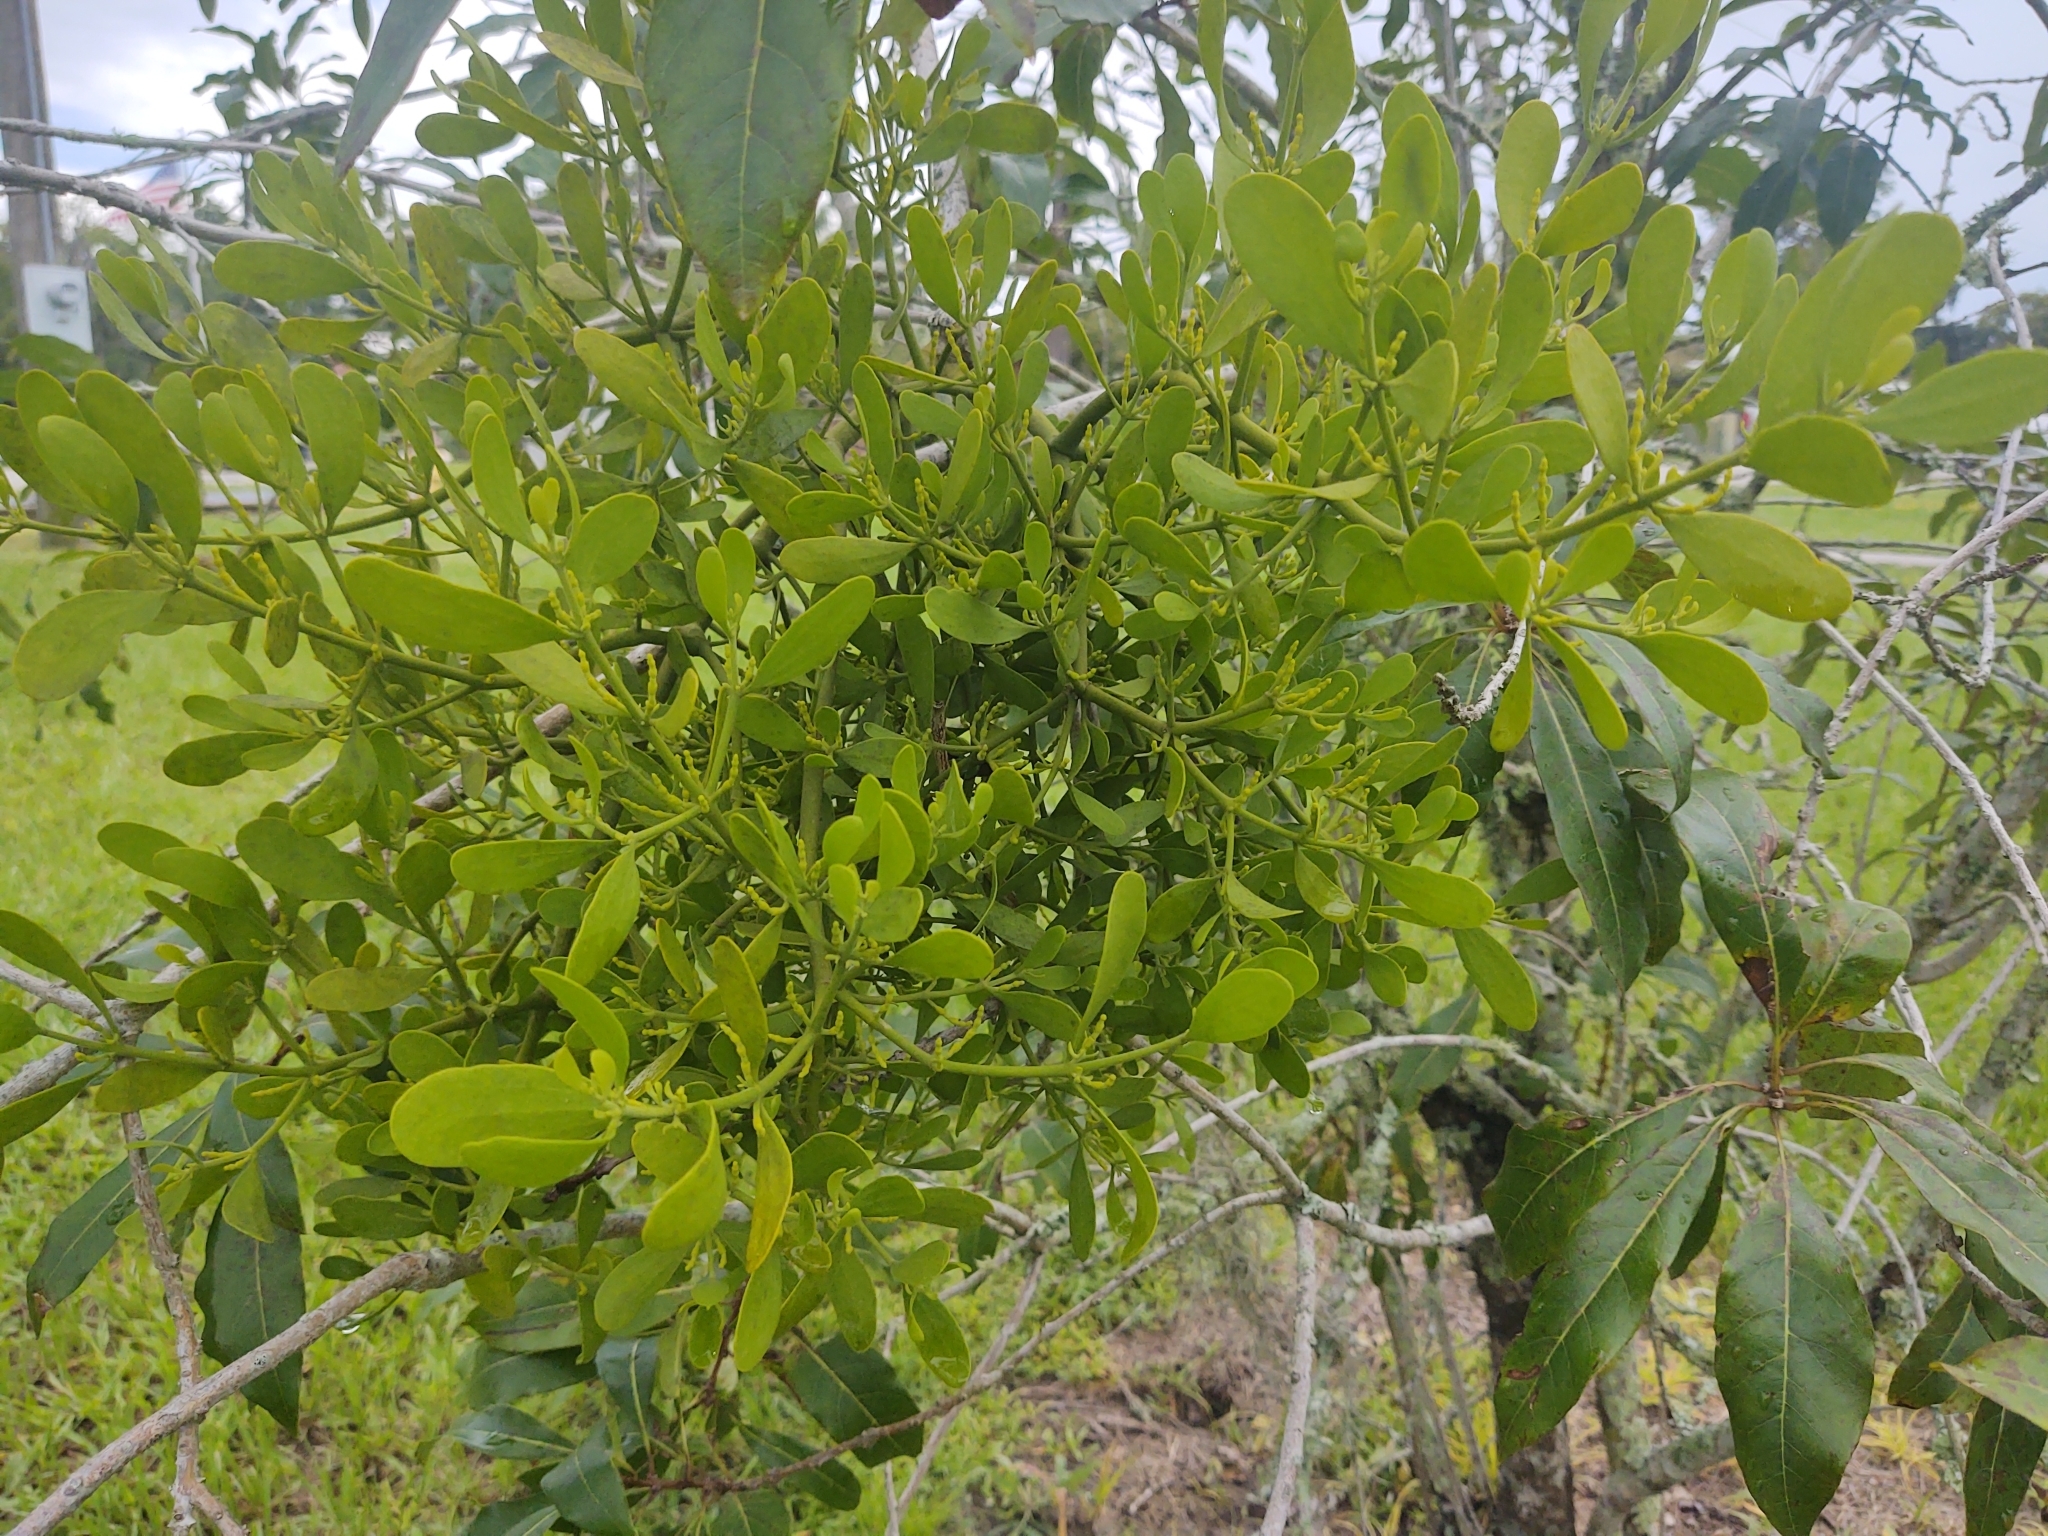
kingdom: Plantae
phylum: Tracheophyta
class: Magnoliopsida
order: Santalales
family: Viscaceae
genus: Phoradendron
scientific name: Phoradendron leucarpum
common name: Pacific mistletoe
